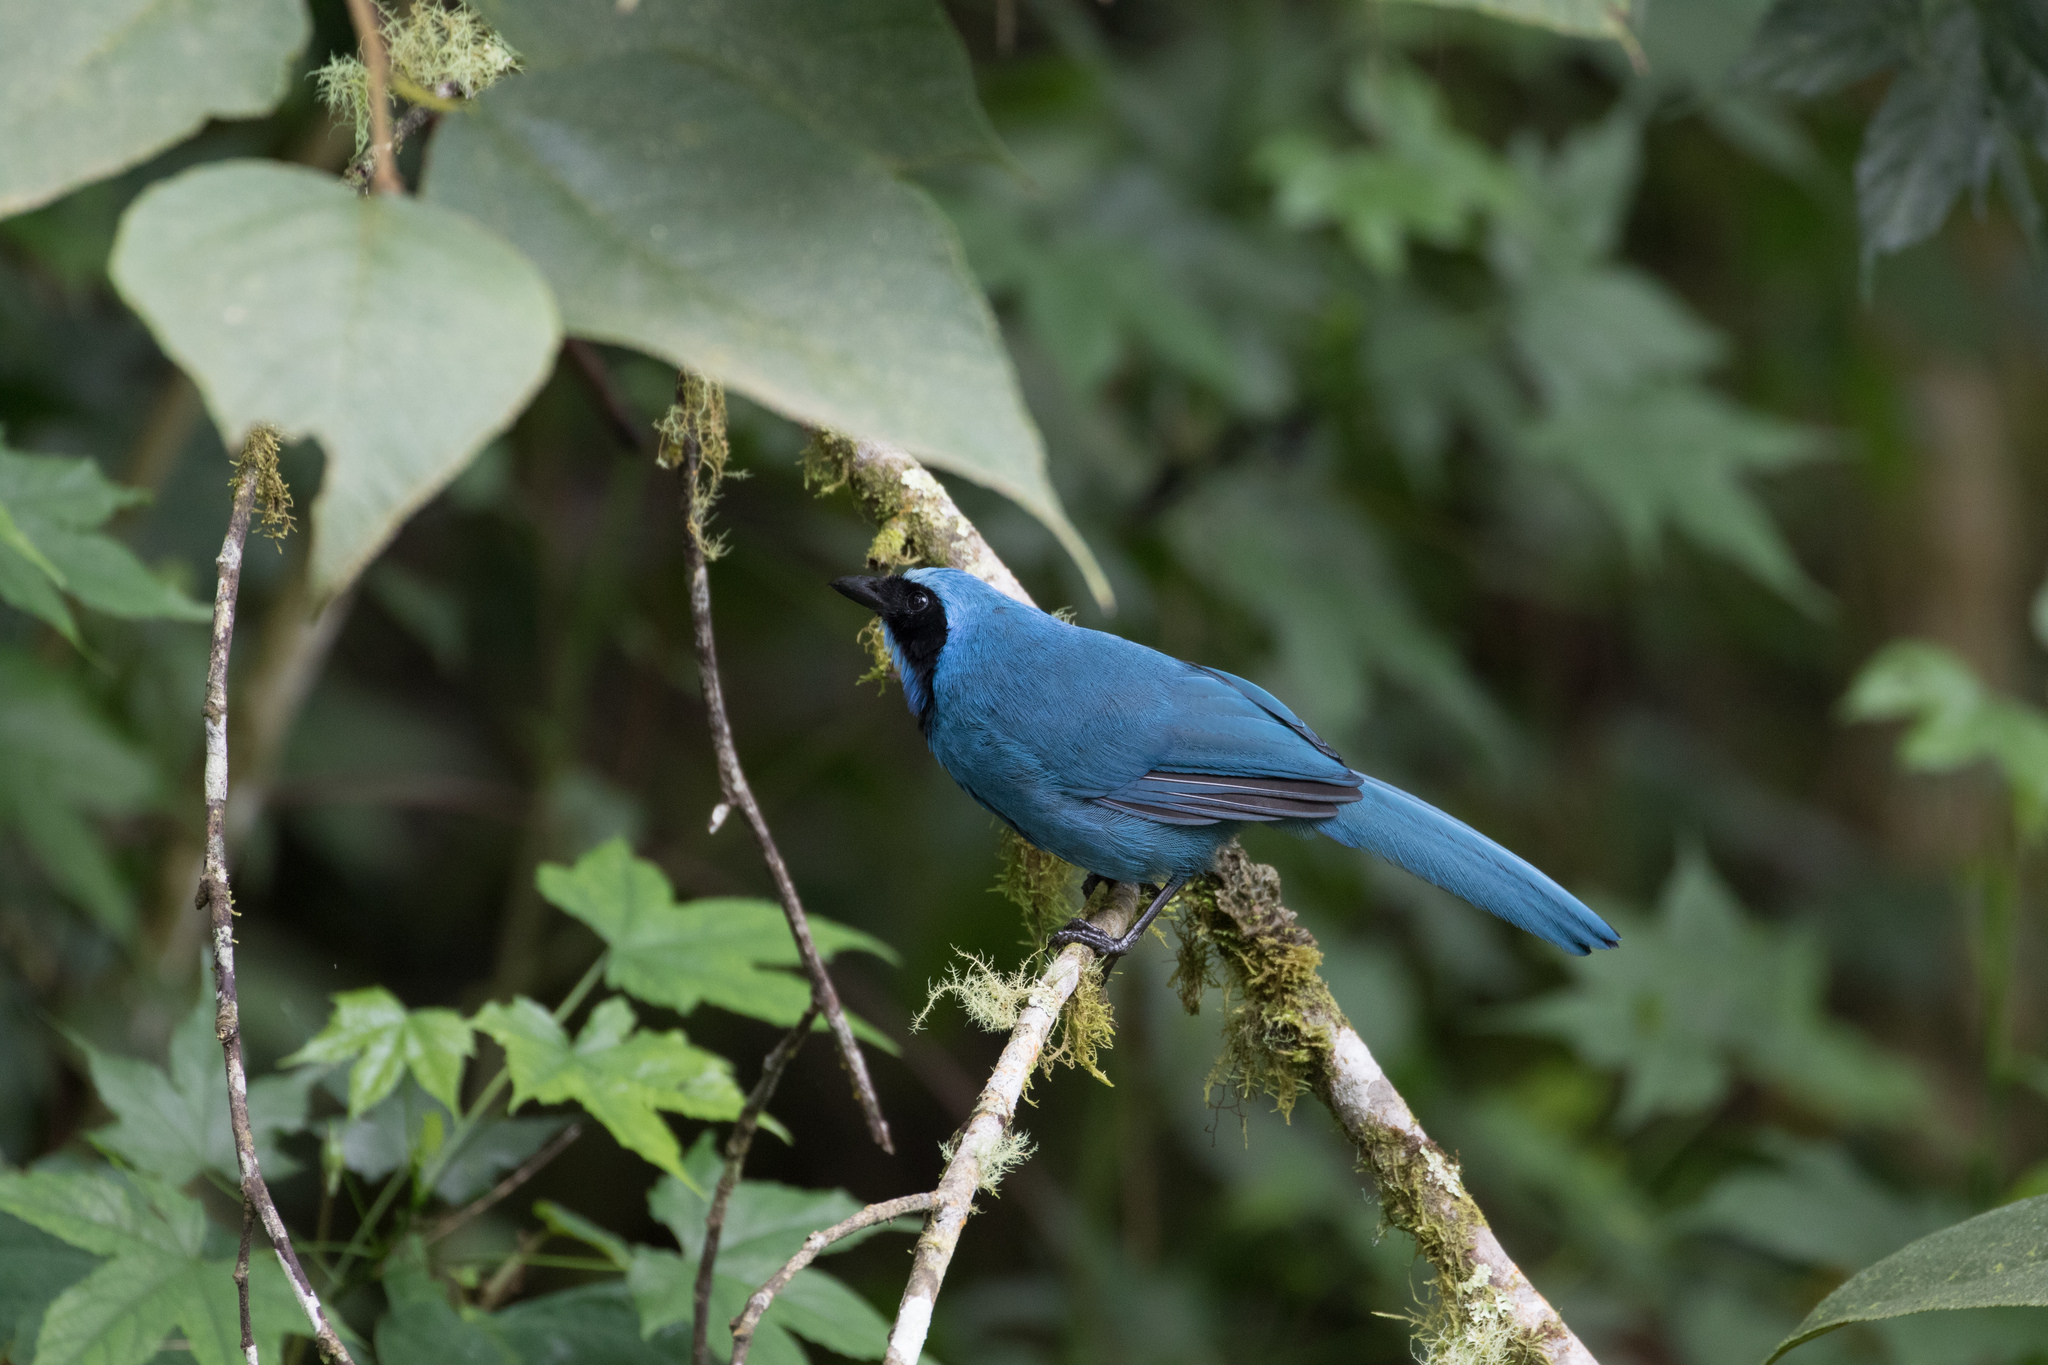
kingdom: Animalia
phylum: Chordata
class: Aves
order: Passeriformes
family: Corvidae
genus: Cyanolyca
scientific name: Cyanolyca turcosa
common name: Turquoise jay
